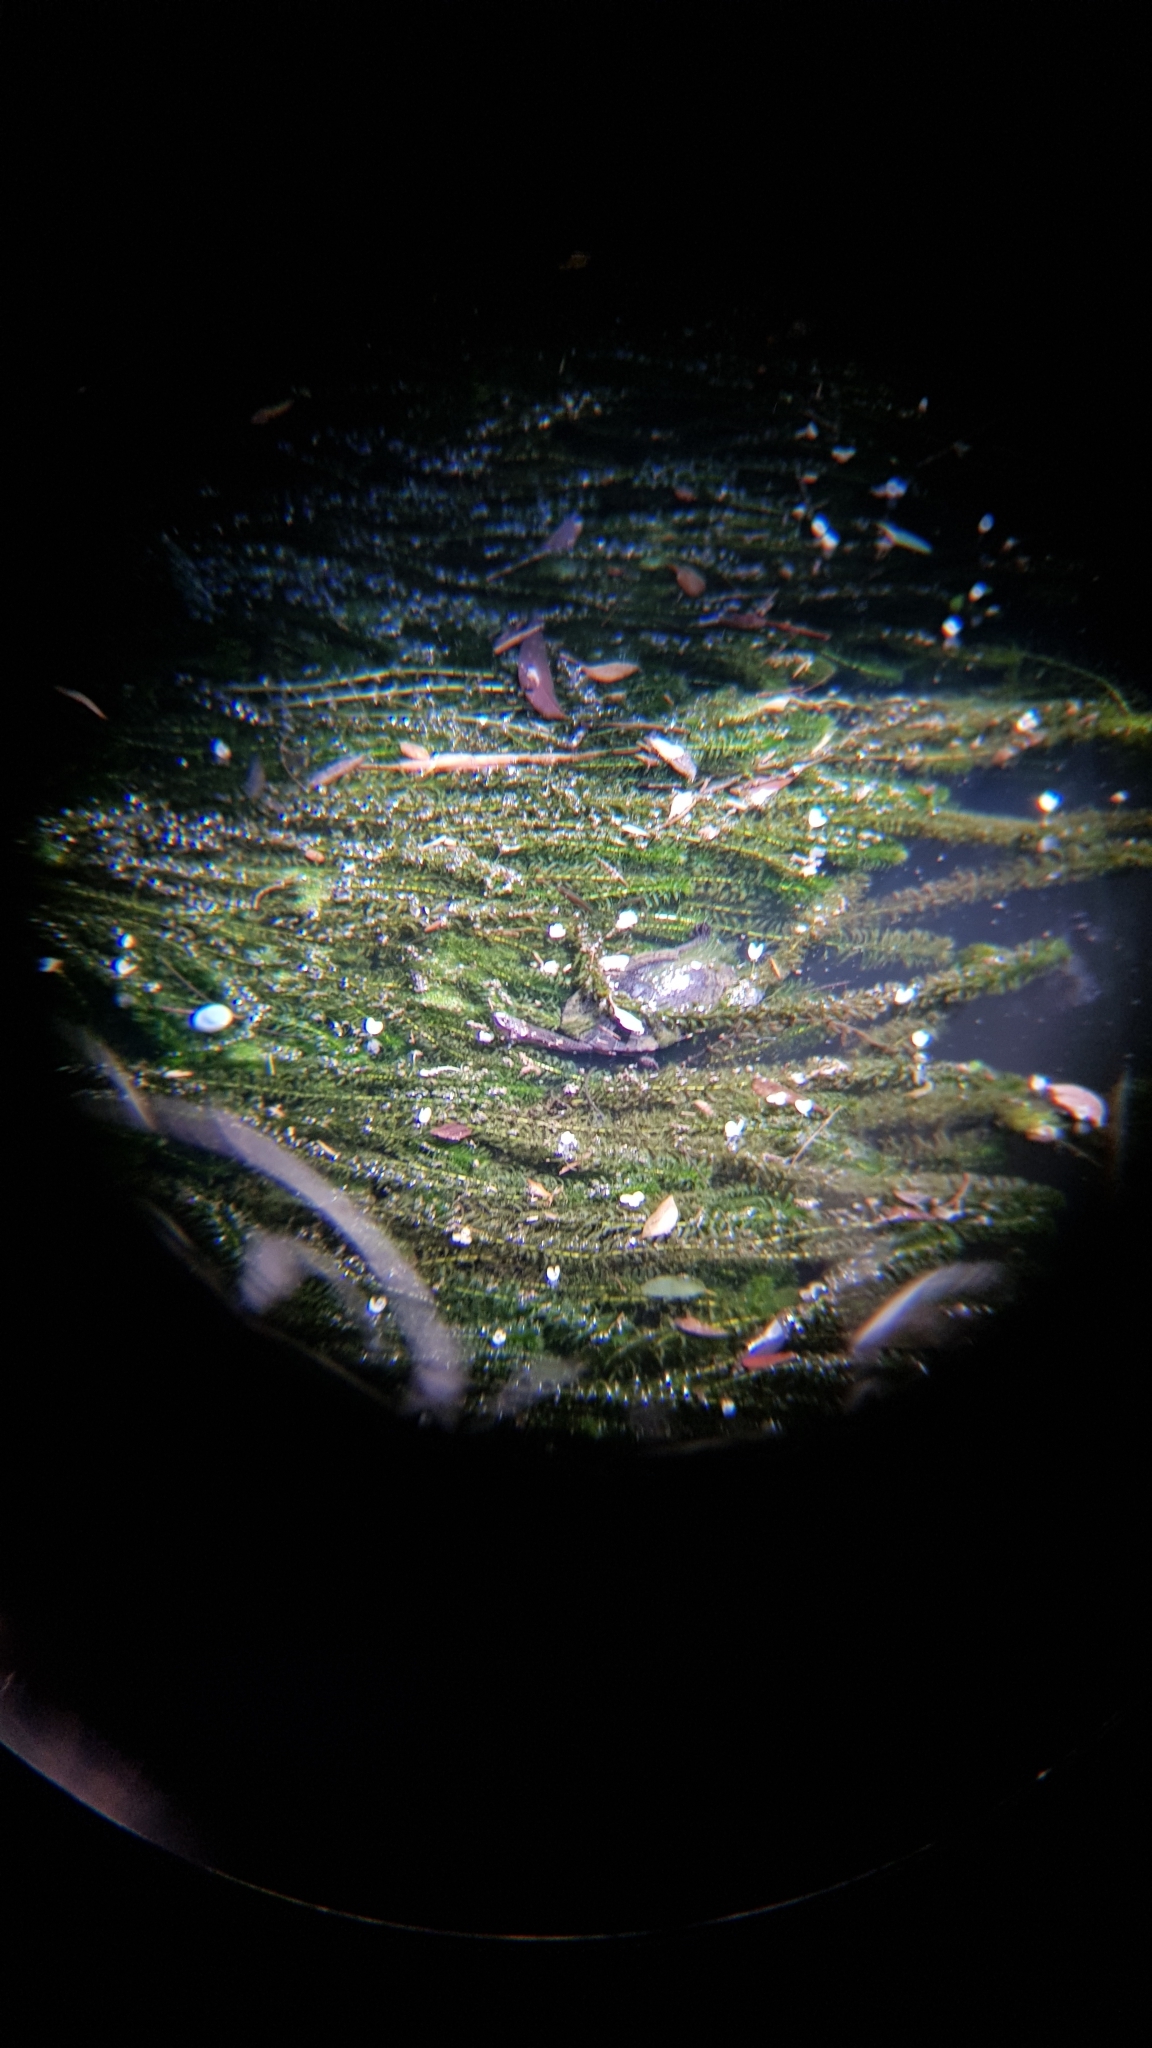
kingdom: Animalia
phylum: Chordata
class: Testudines
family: Chelidae
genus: Chelodina
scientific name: Chelodina longicollis
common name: Eastern snake-necked turtle
